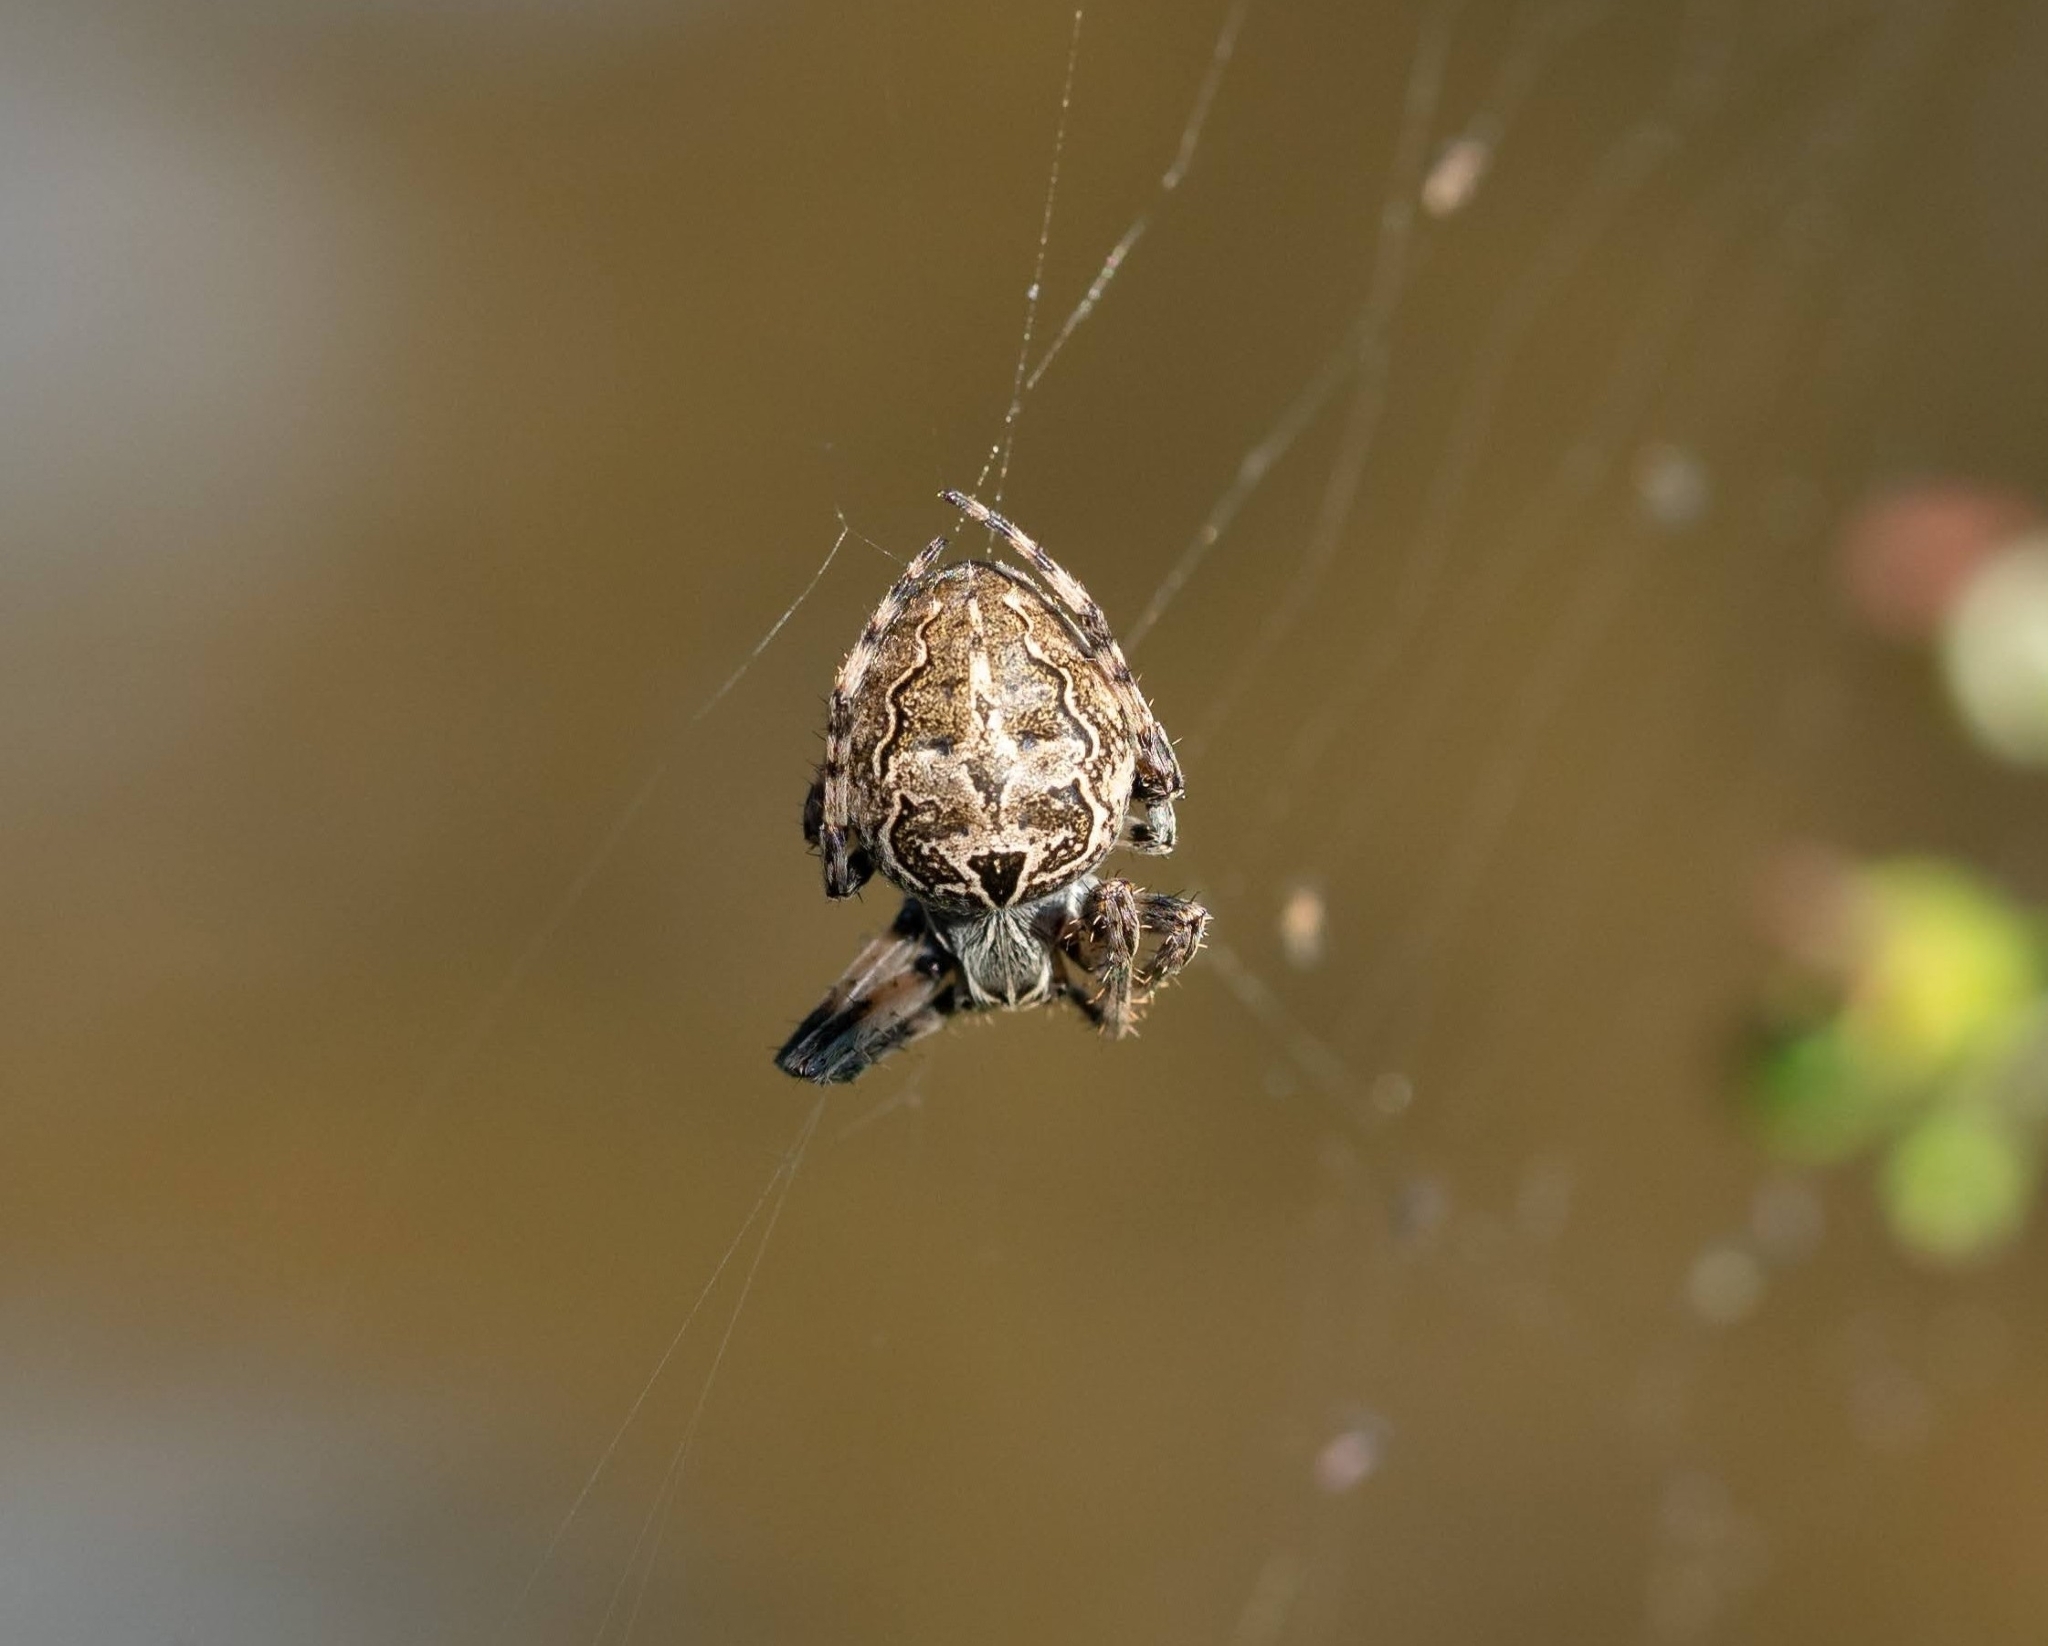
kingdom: Animalia
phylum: Arthropoda
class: Arachnida
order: Araneae
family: Araneidae
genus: Larinioides
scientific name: Larinioides sclopetarius
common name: Bridge orbweaver
